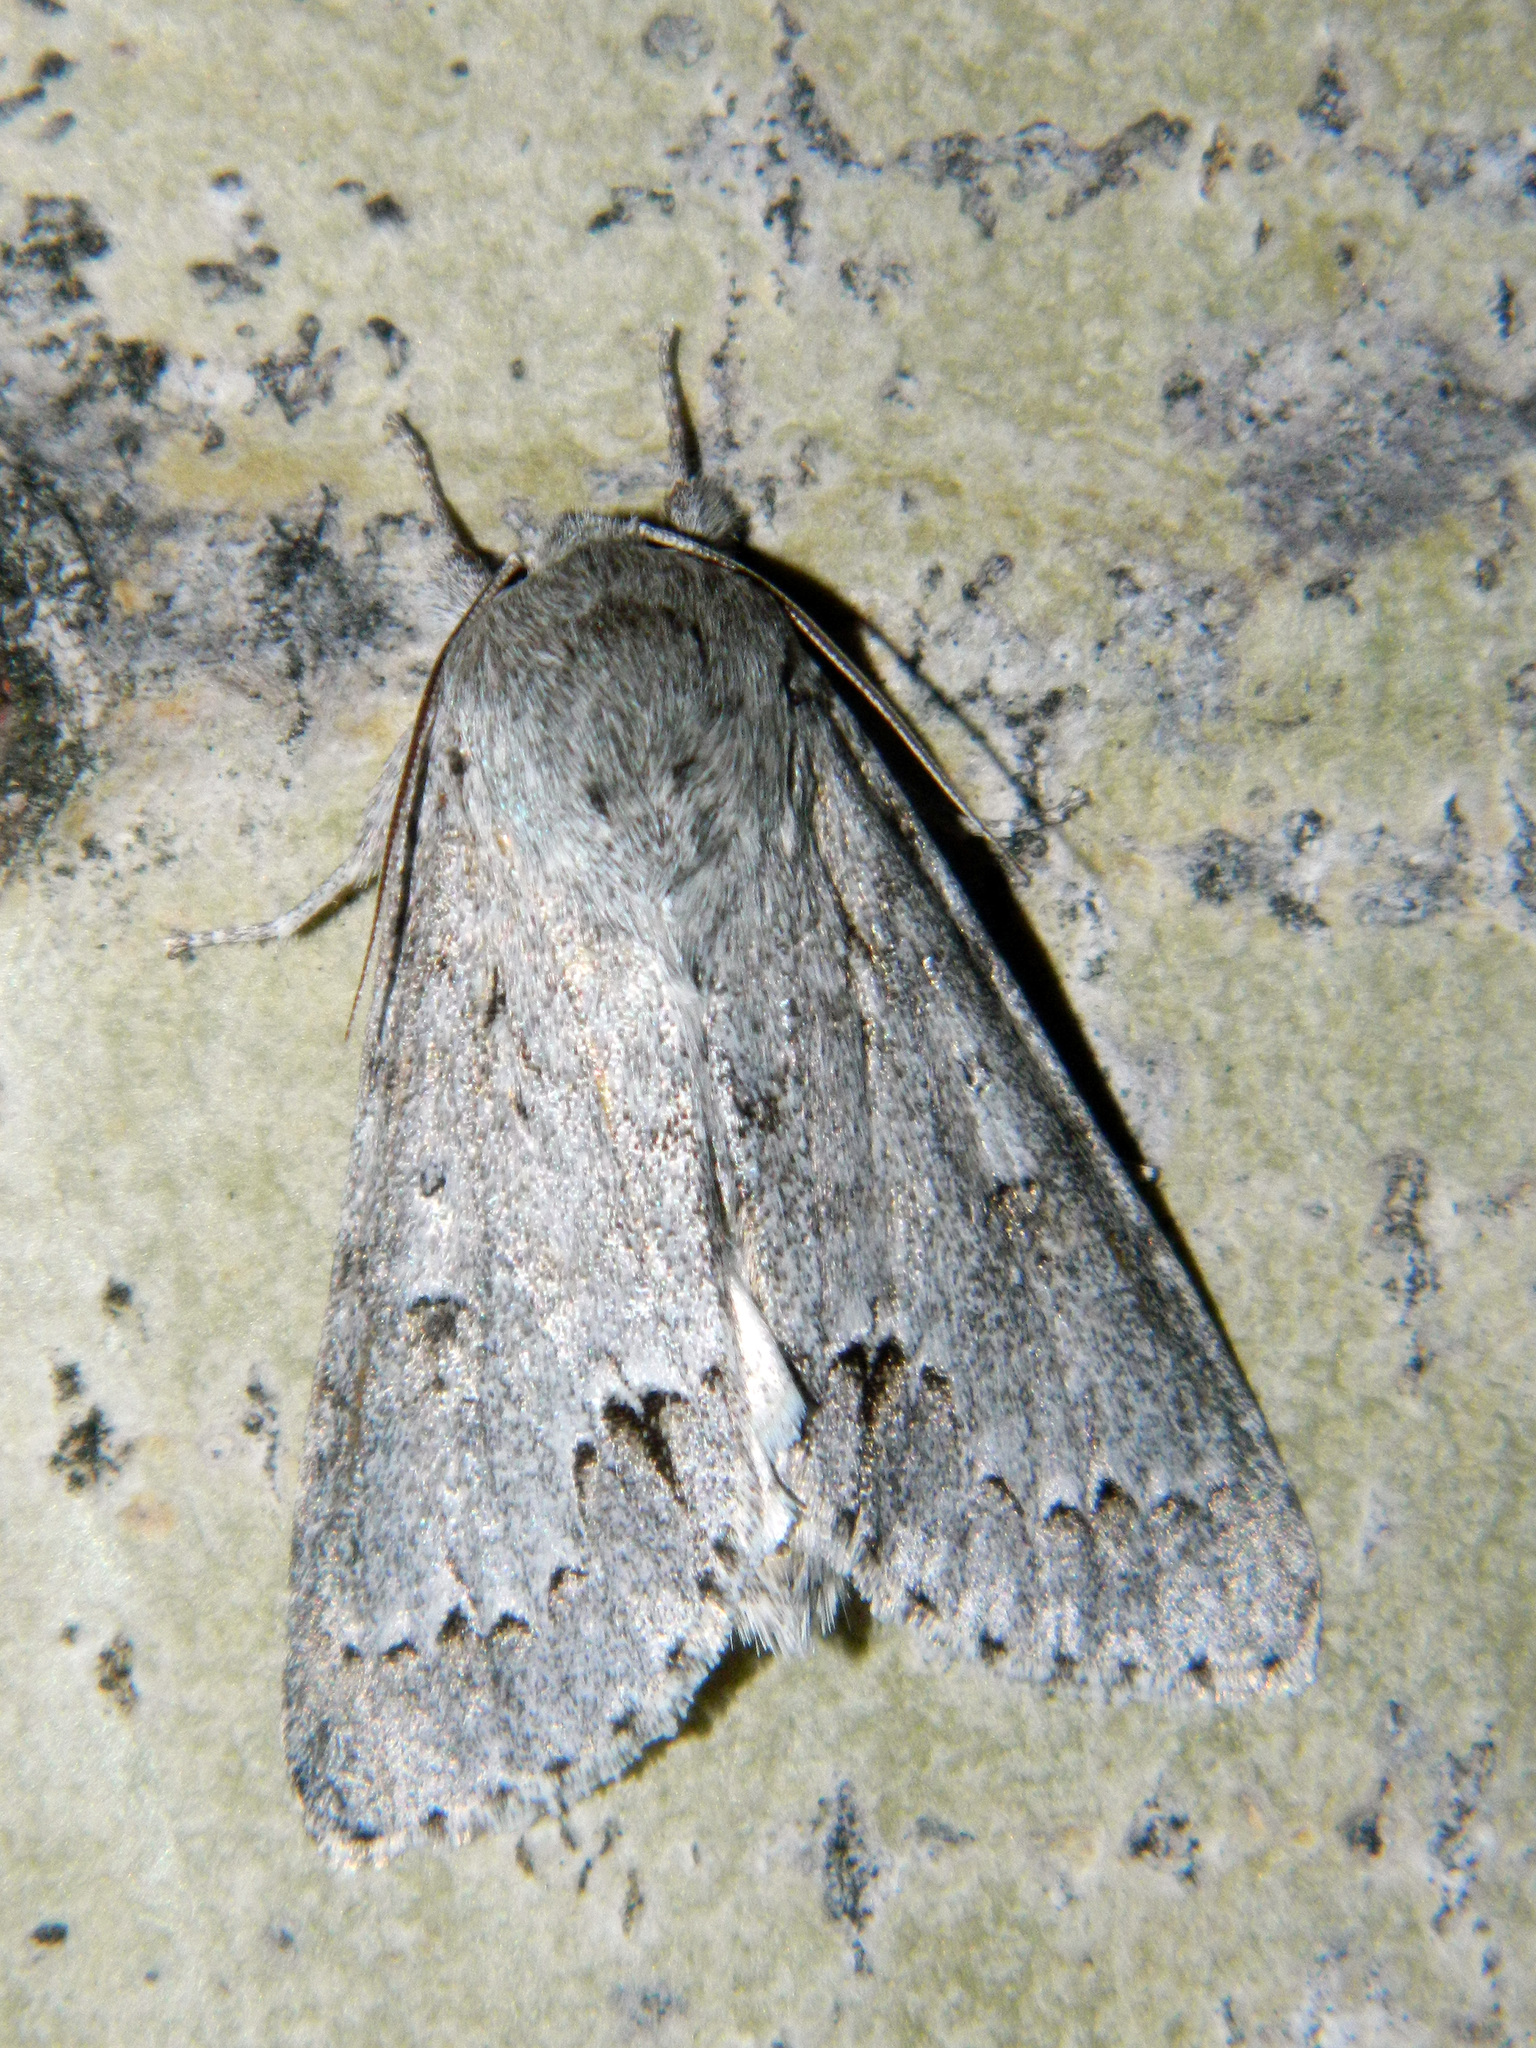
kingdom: Animalia
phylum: Arthropoda
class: Insecta
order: Lepidoptera
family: Noctuidae
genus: Acronicta
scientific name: Acronicta insita
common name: Large gray dagger
